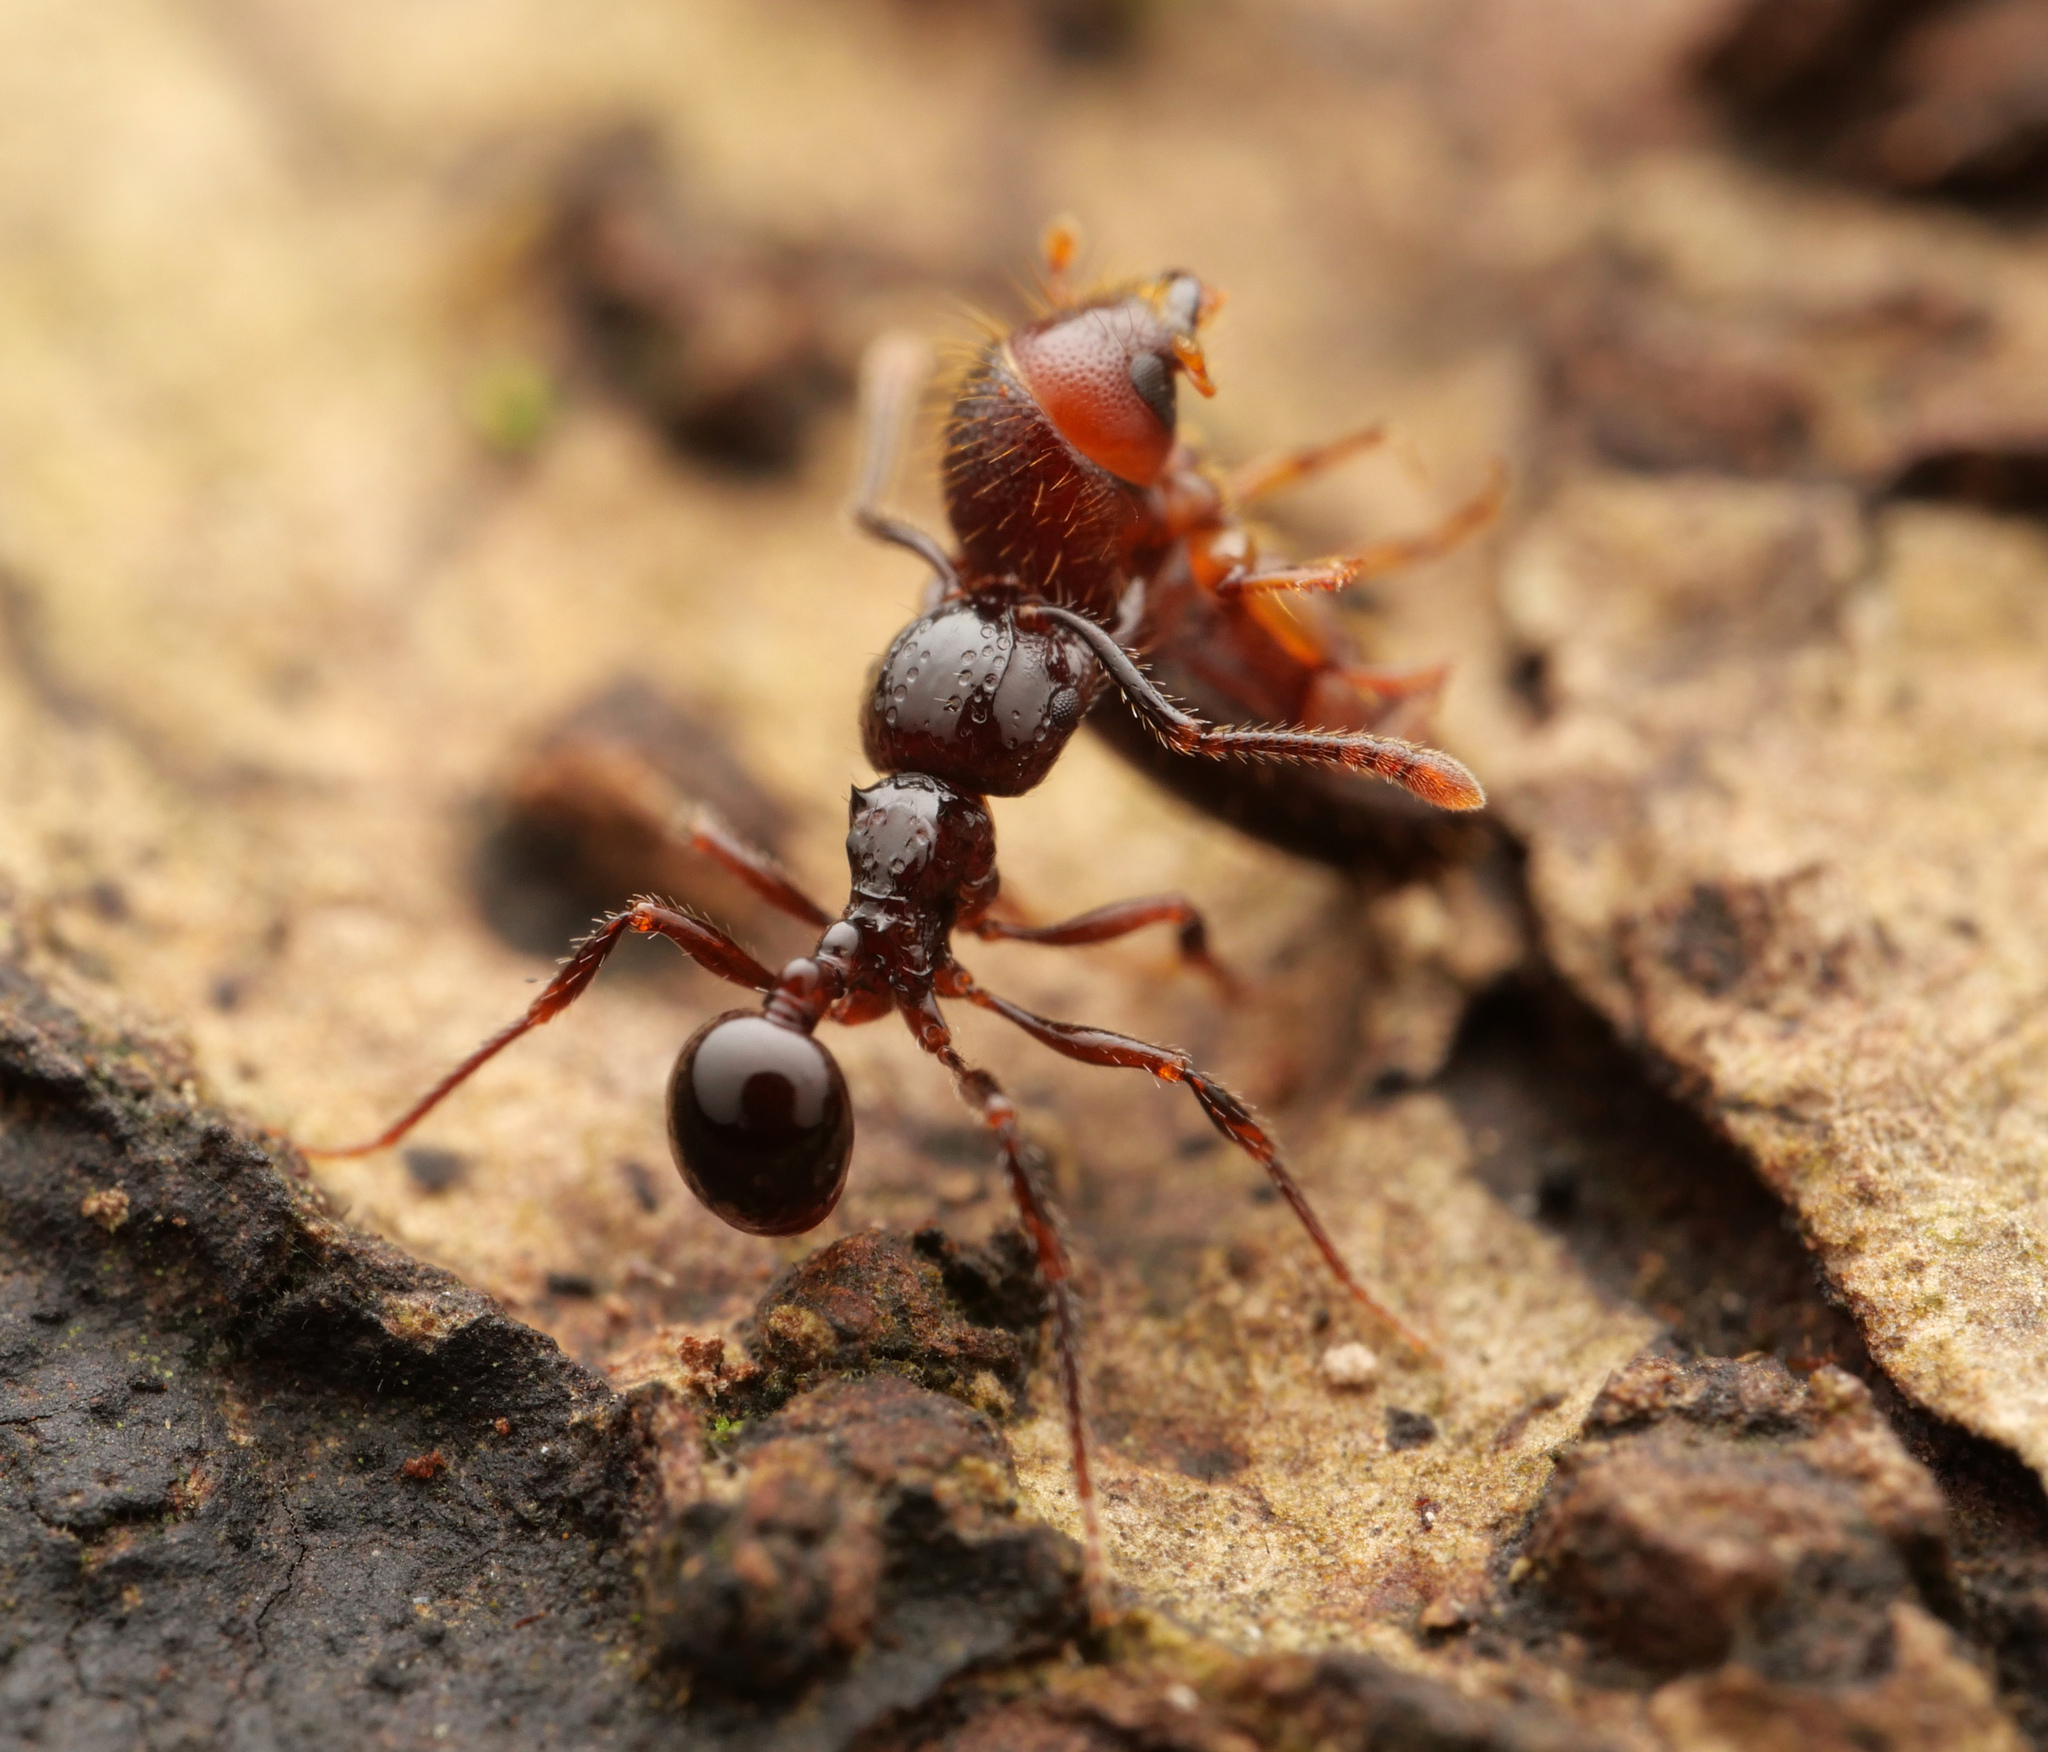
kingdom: Animalia
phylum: Arthropoda
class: Insecta
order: Hymenoptera
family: Formicidae
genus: Pristomyrmex
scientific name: Pristomyrmex quadridens
